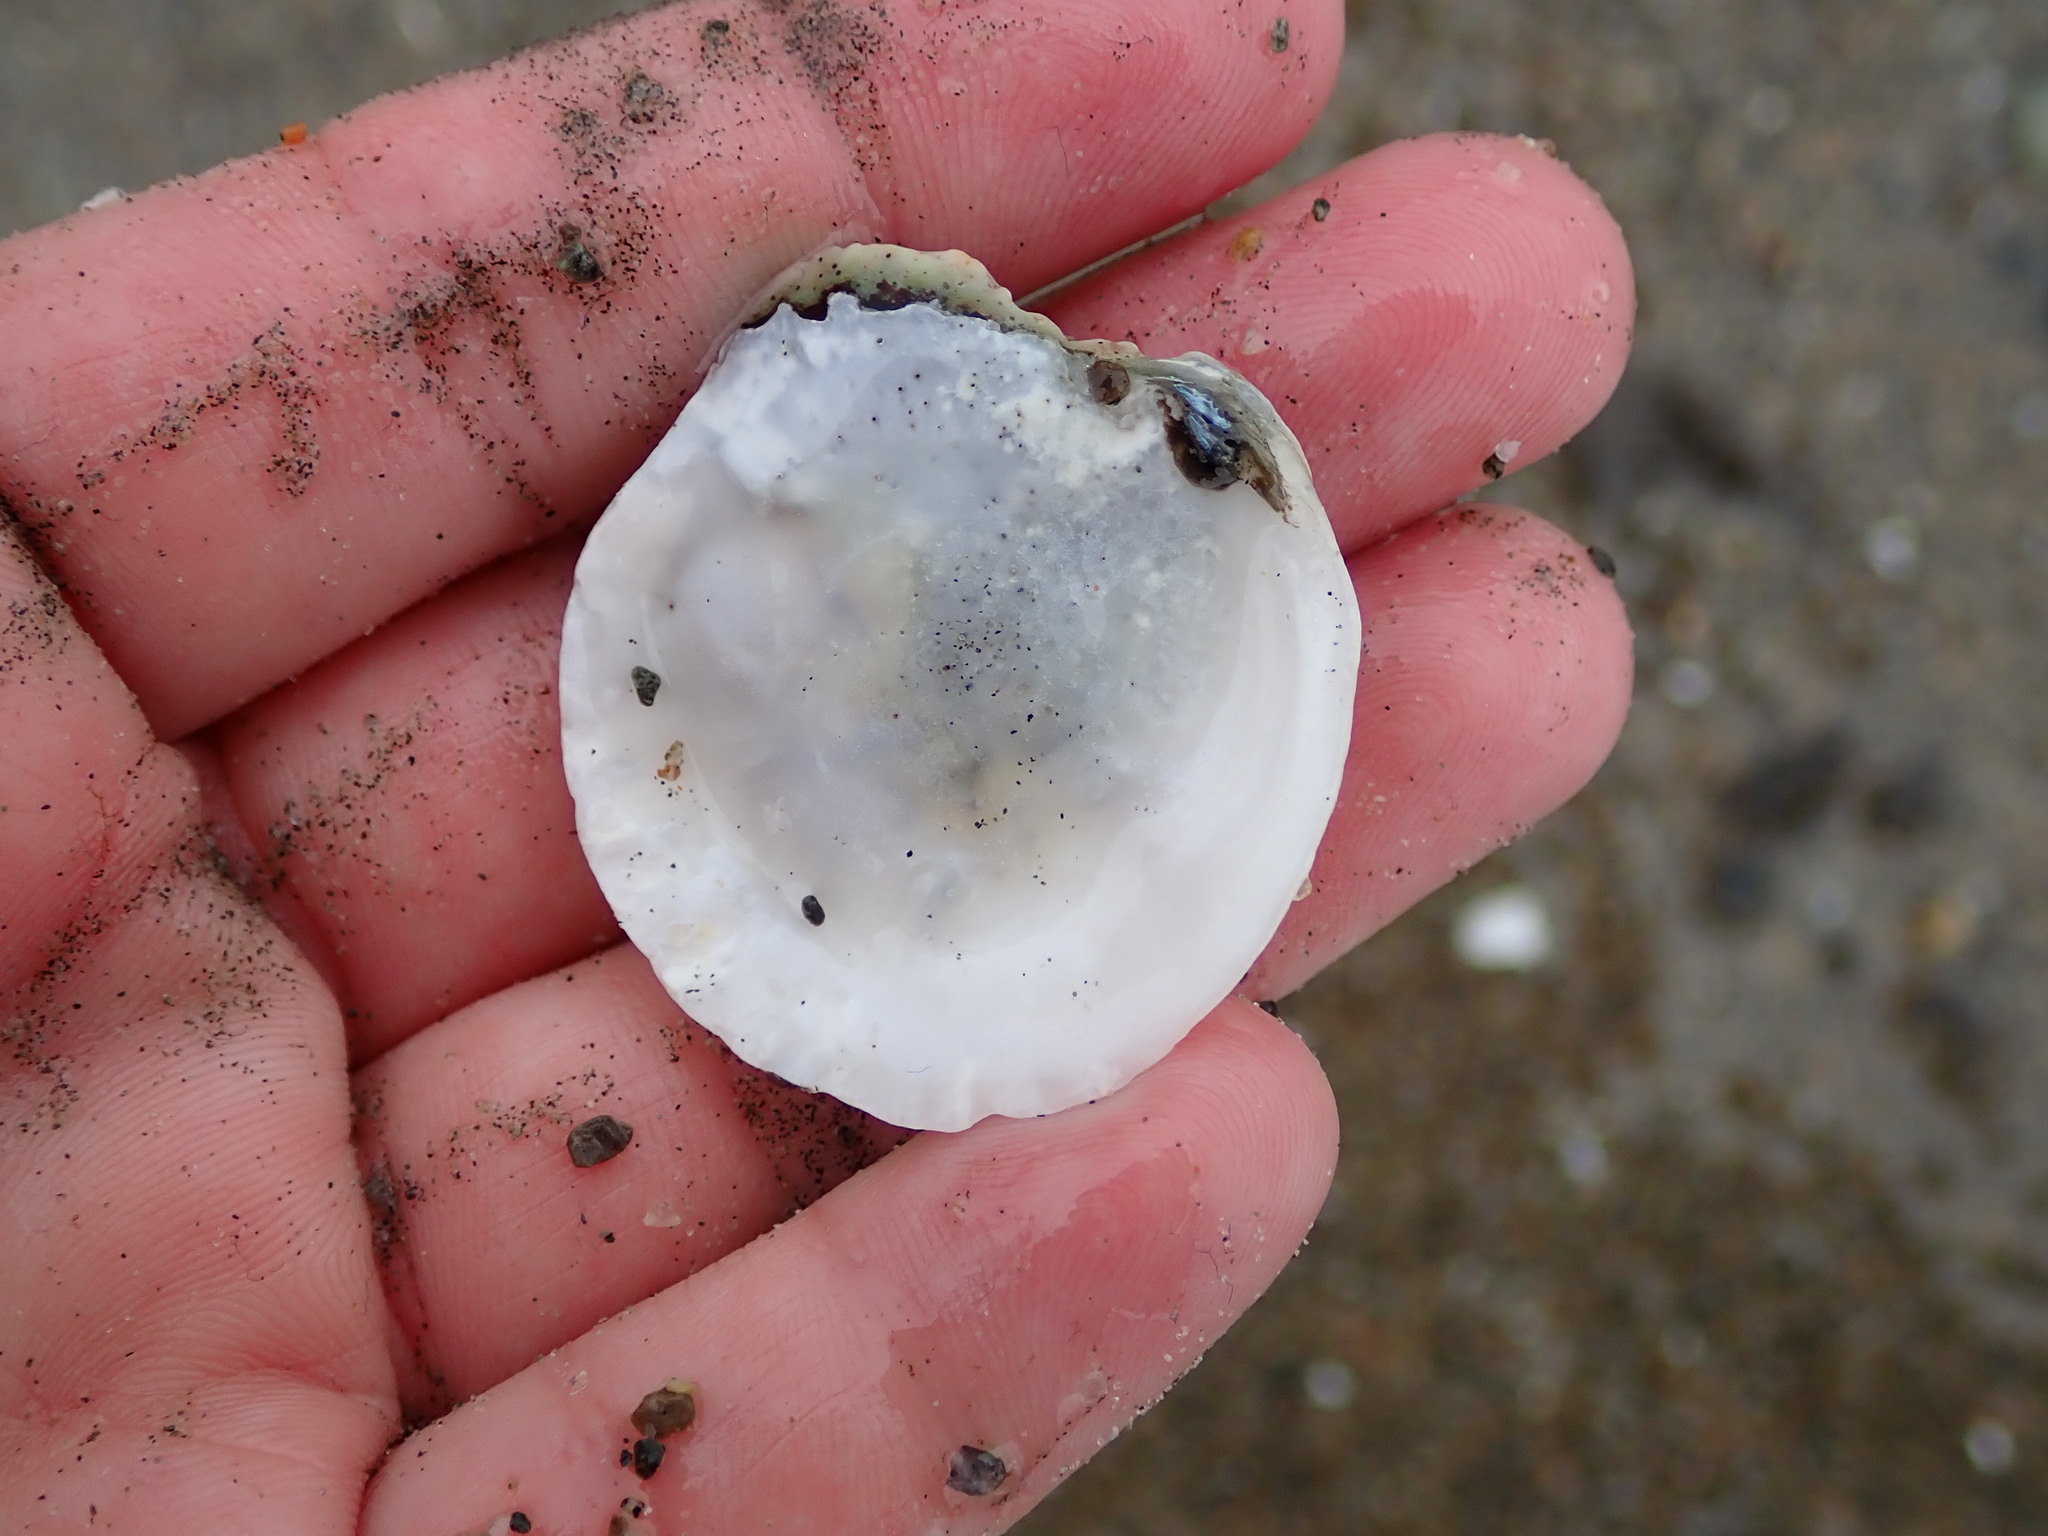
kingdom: Animalia
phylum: Mollusca
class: Bivalvia
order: Ostreida
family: Ostreidae
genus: Ostrea
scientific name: Ostrea edulis
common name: Flat oyster
